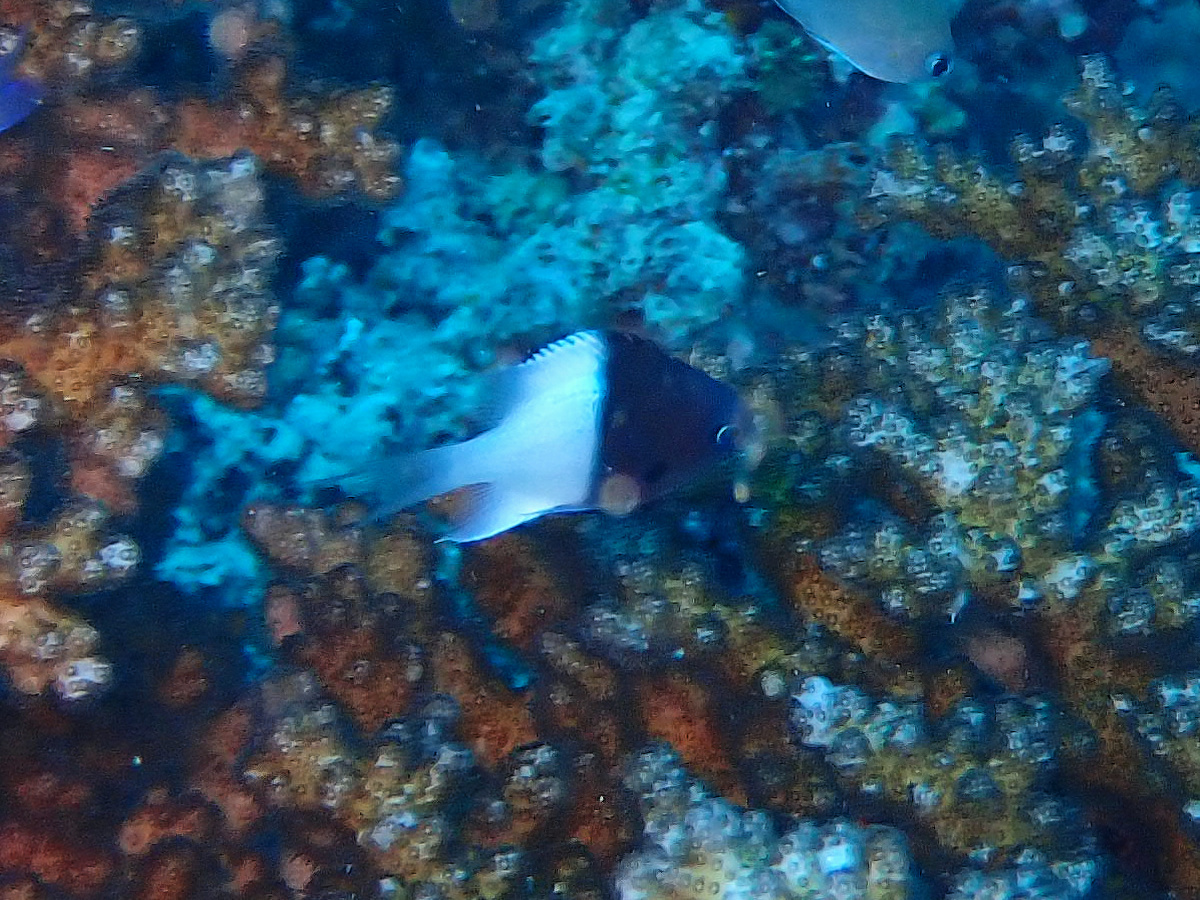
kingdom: Animalia
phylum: Chordata
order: Perciformes
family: Pomacentridae
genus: Chromis
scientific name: Chromis iomelas
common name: Half and half chromis
